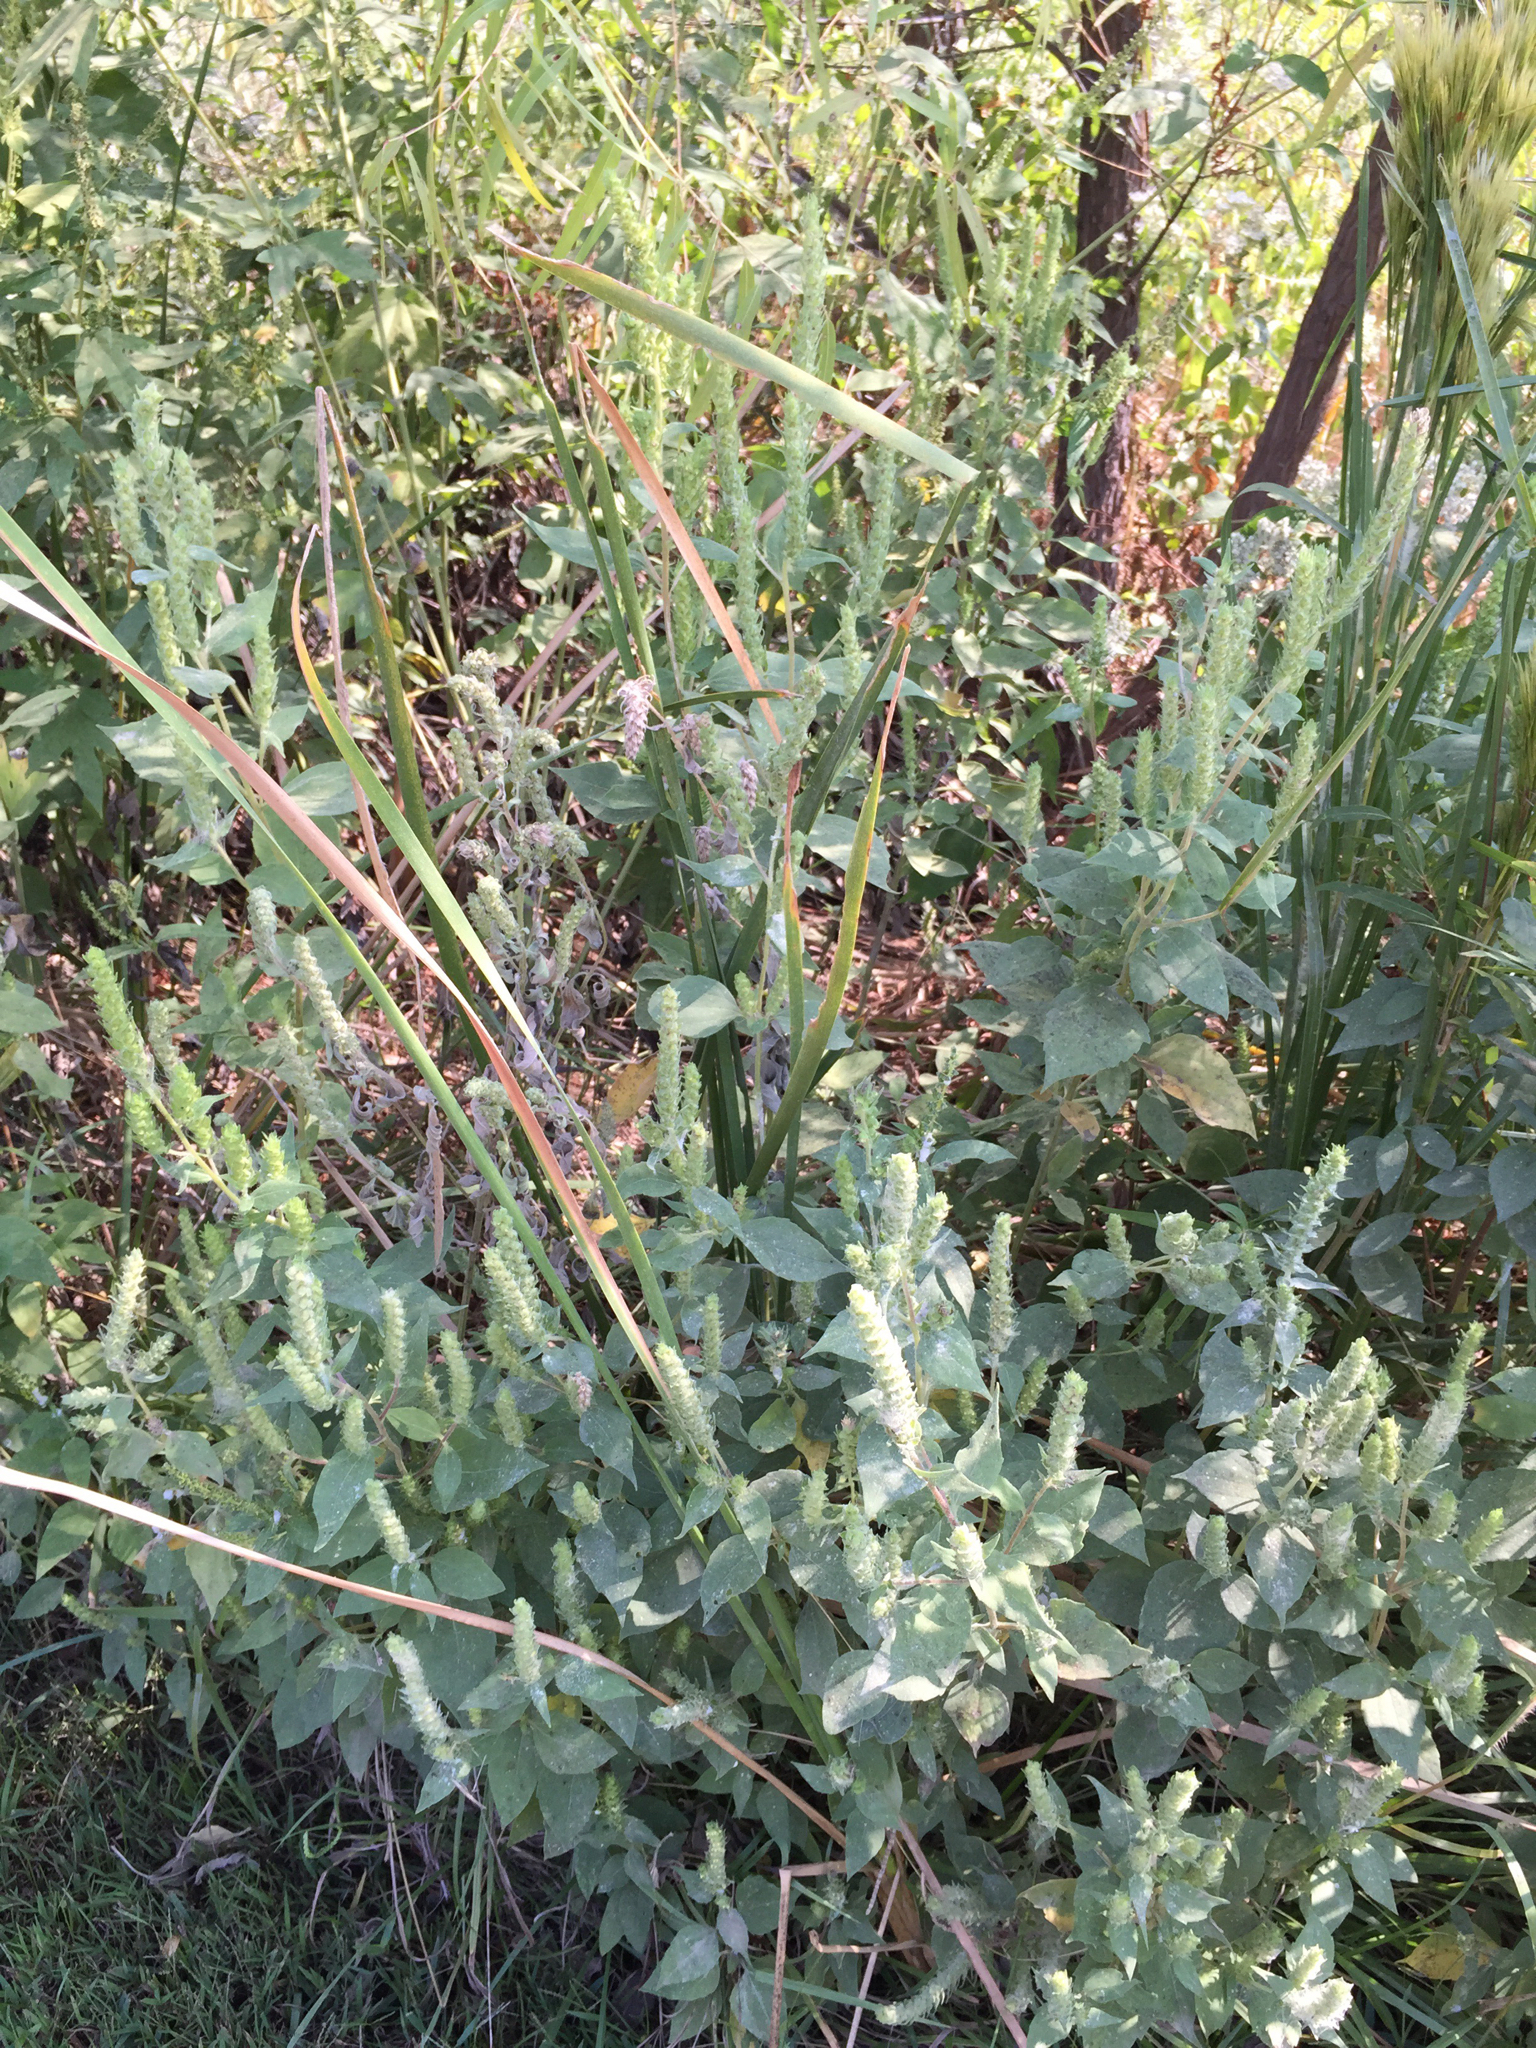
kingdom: Plantae
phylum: Tracheophyta
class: Magnoliopsida
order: Asterales
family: Asteraceae
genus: Iva
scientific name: Iva annua
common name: Marsh-elder
